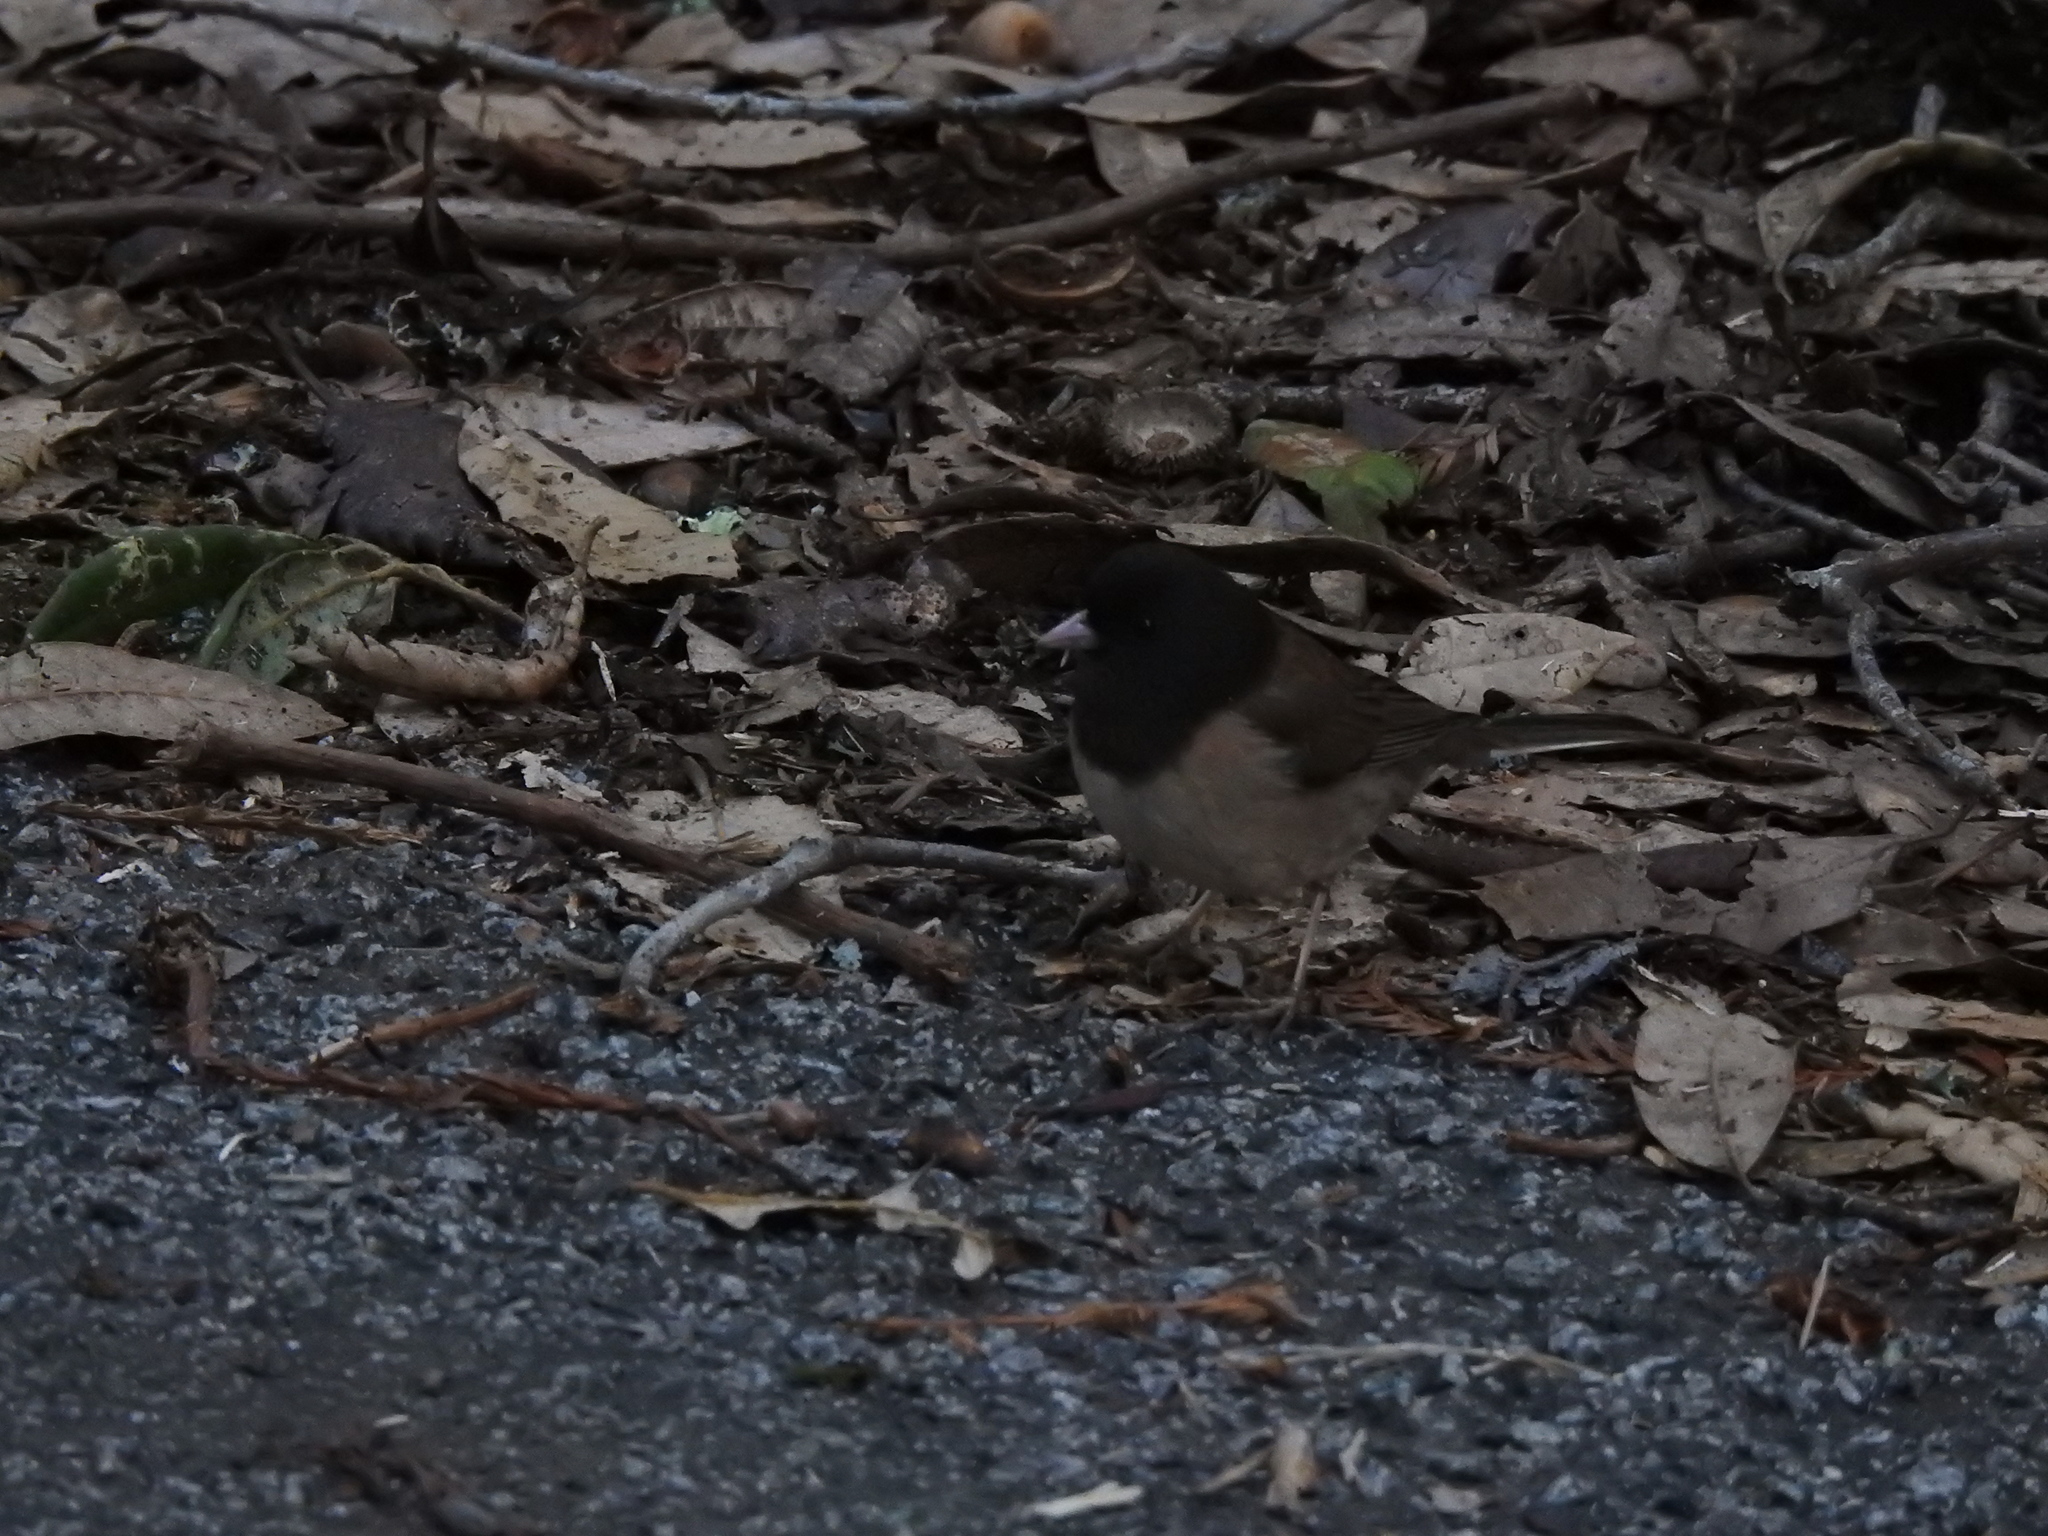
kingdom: Animalia
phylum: Chordata
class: Aves
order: Passeriformes
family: Passerellidae
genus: Junco
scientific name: Junco hyemalis
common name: Dark-eyed junco
